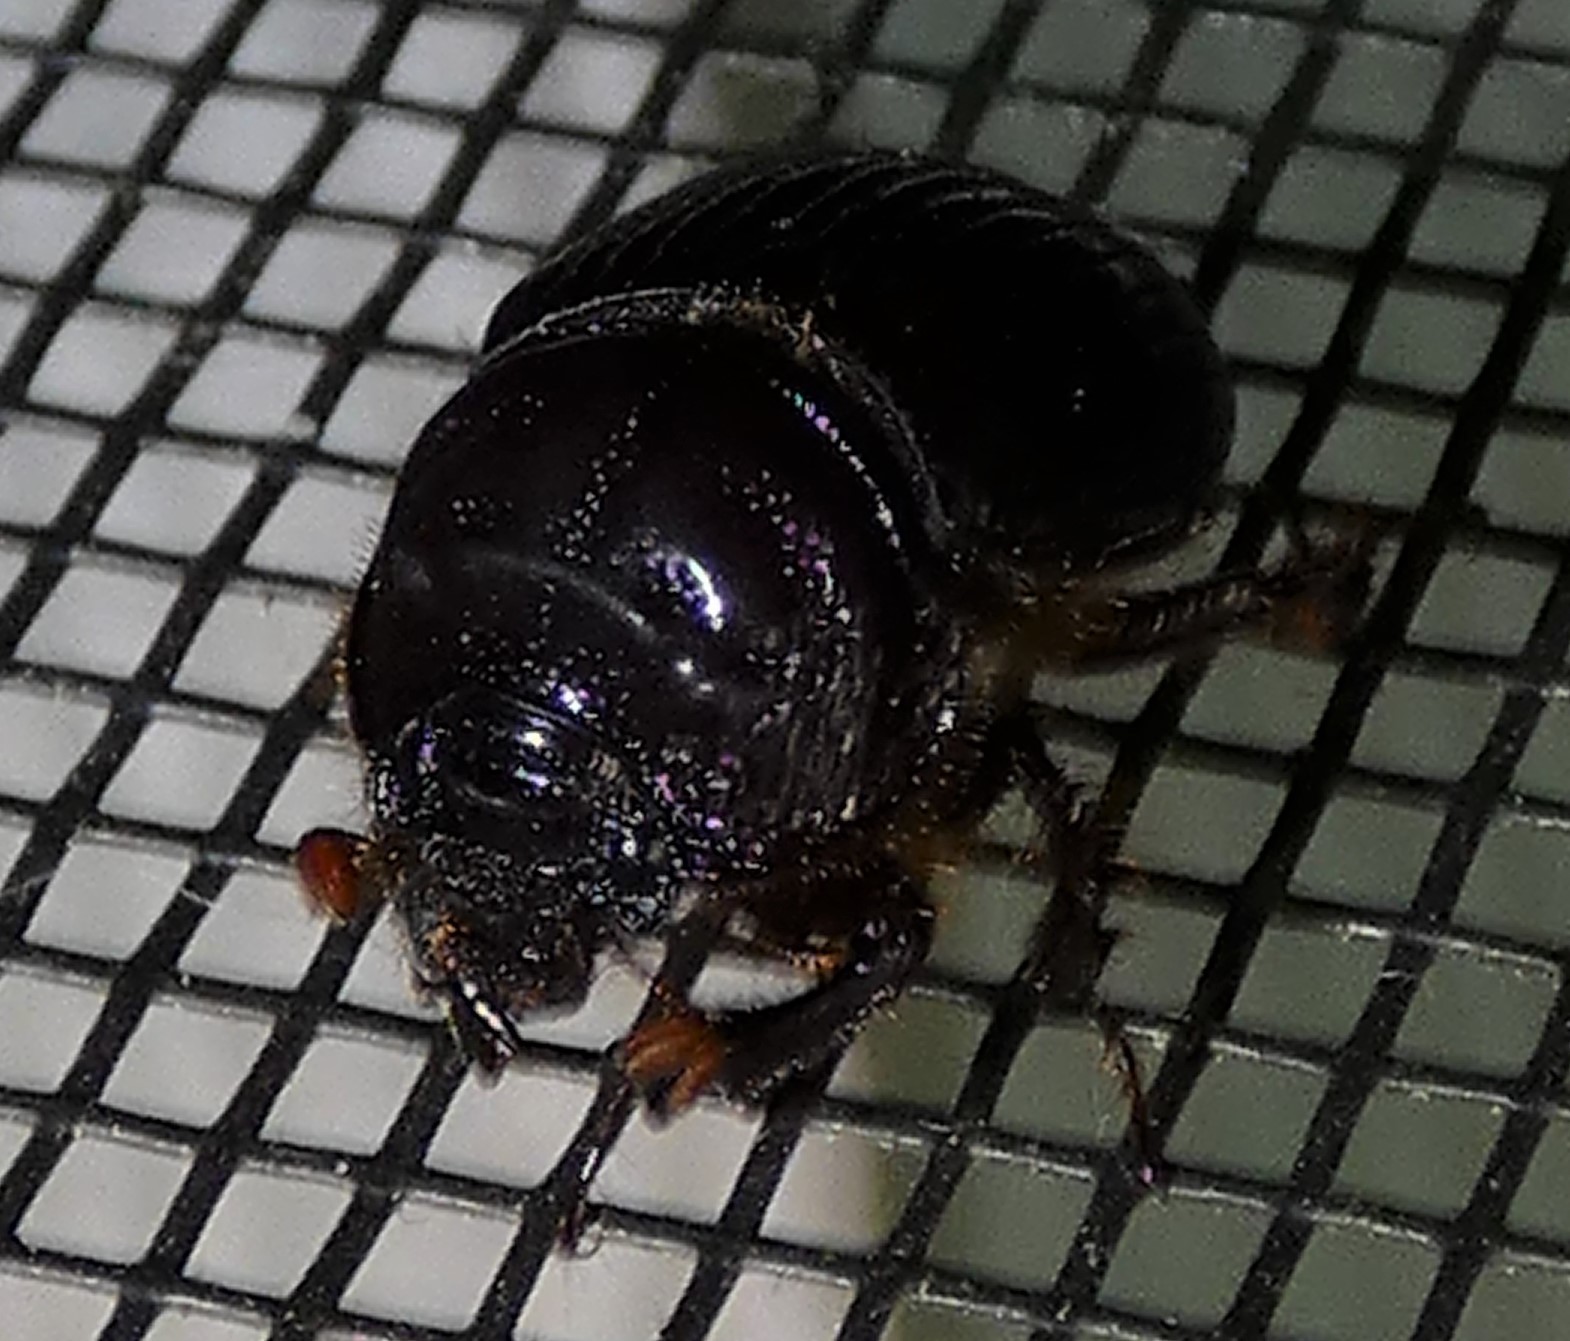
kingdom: Animalia
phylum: Arthropoda
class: Insecta
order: Coleoptera
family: Geotrupidae
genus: Eucanthus
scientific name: Eucanthus impressus
